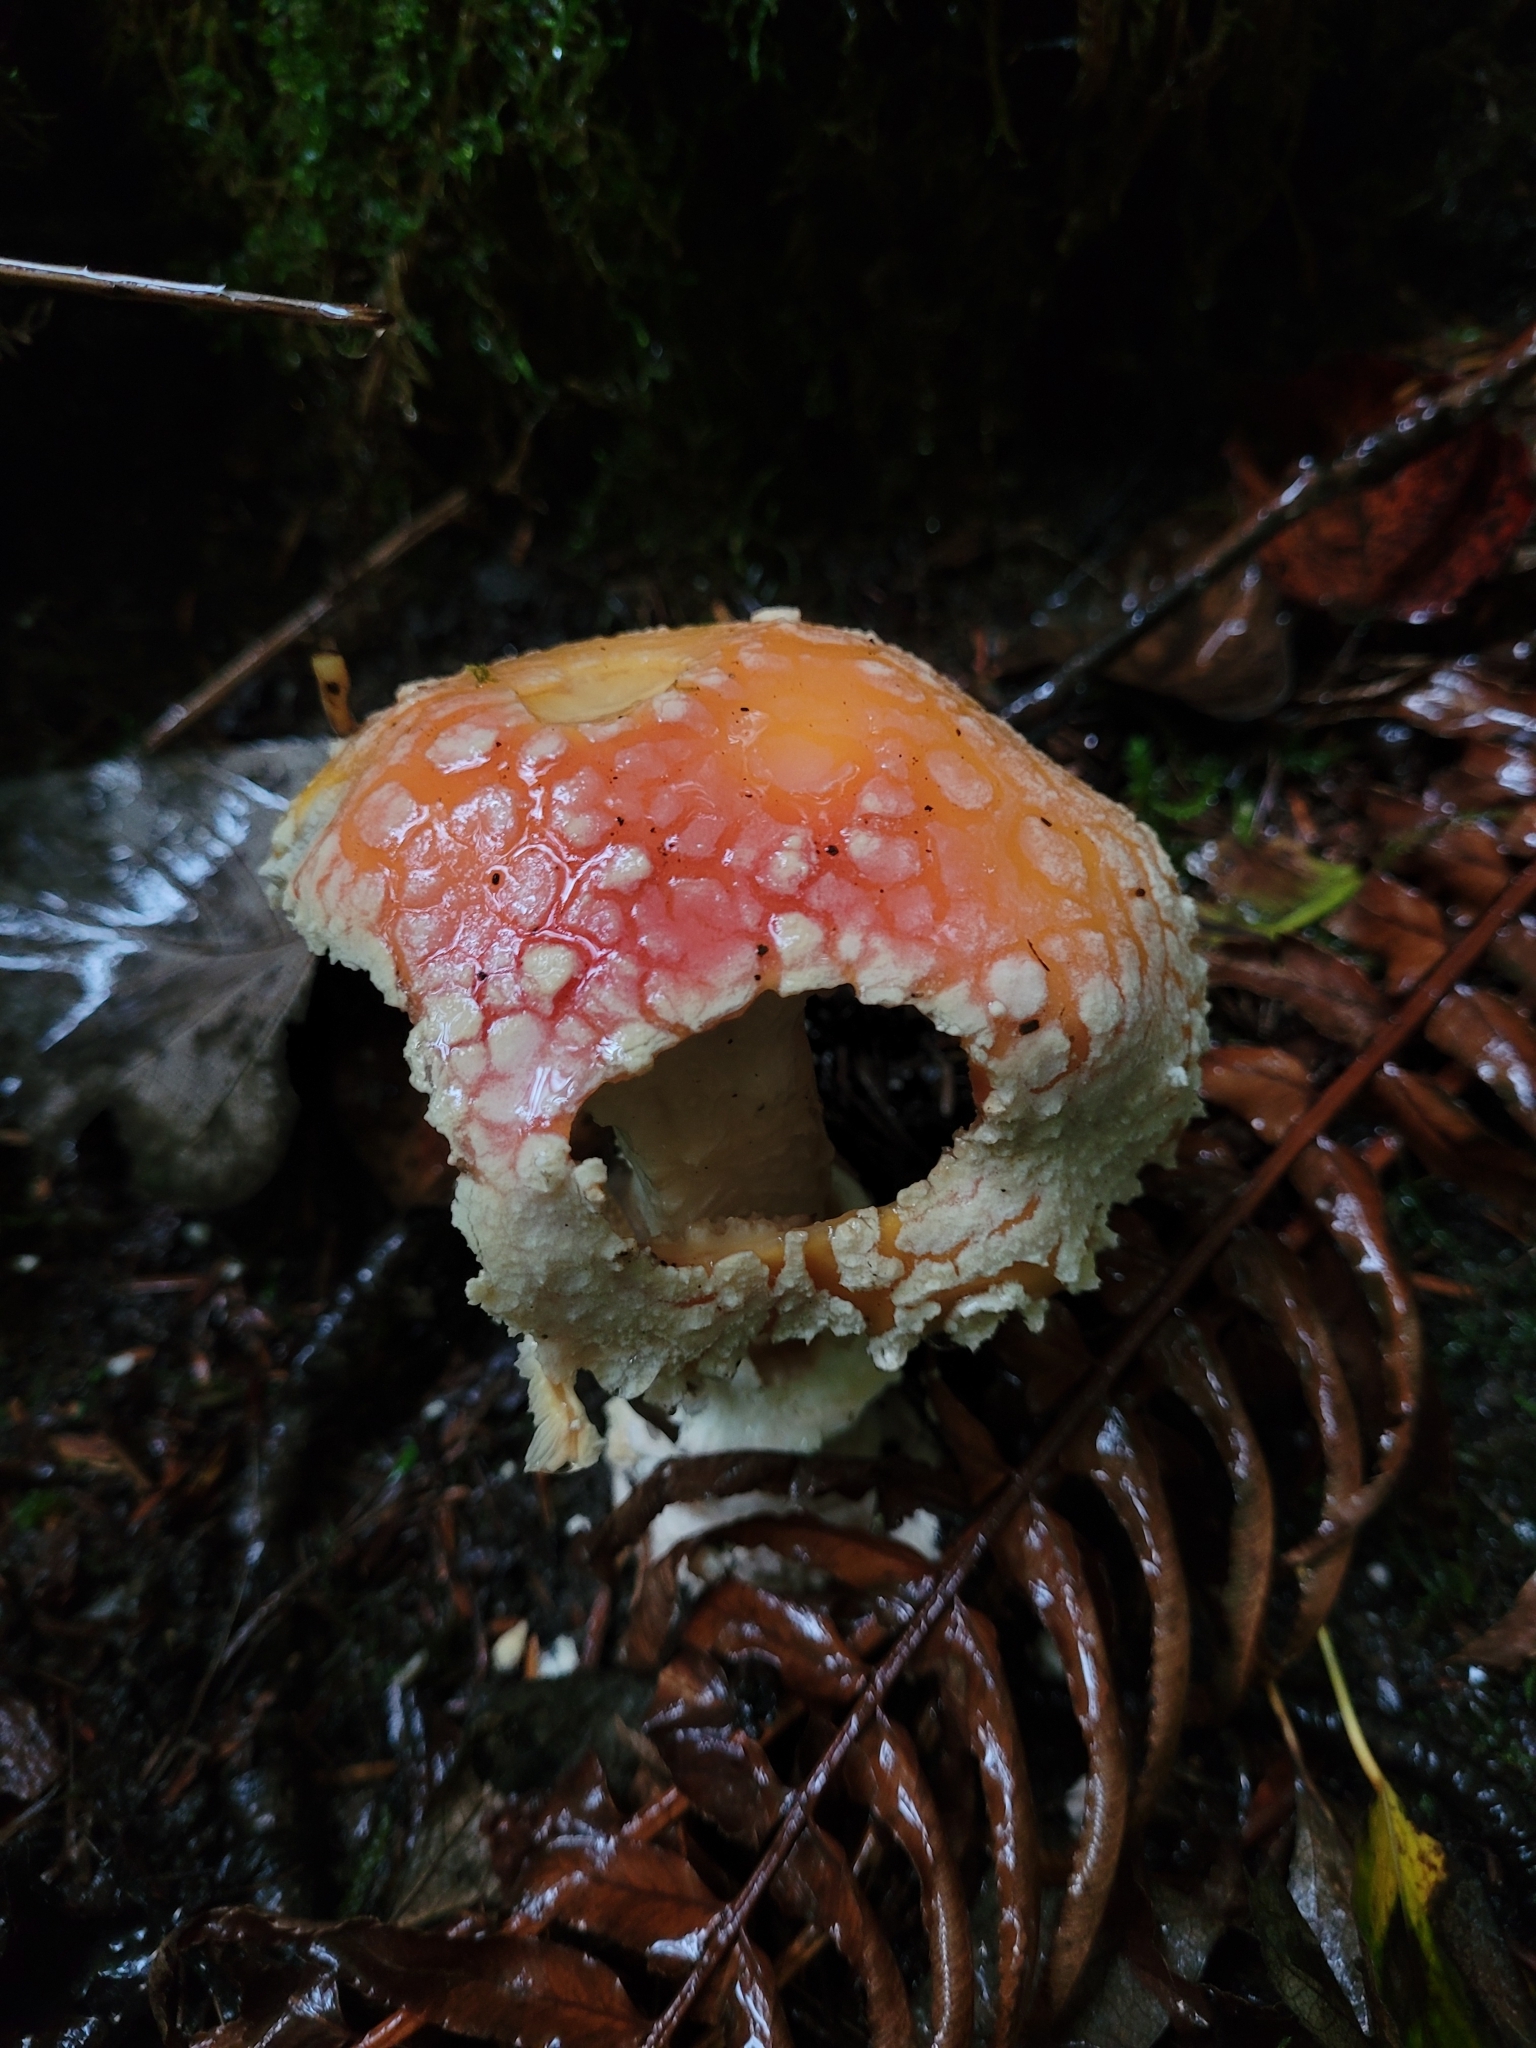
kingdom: Fungi
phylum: Basidiomycota
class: Agaricomycetes
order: Agaricales
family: Amanitaceae
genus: Amanita
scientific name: Amanita muscaria
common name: Fly agaric
